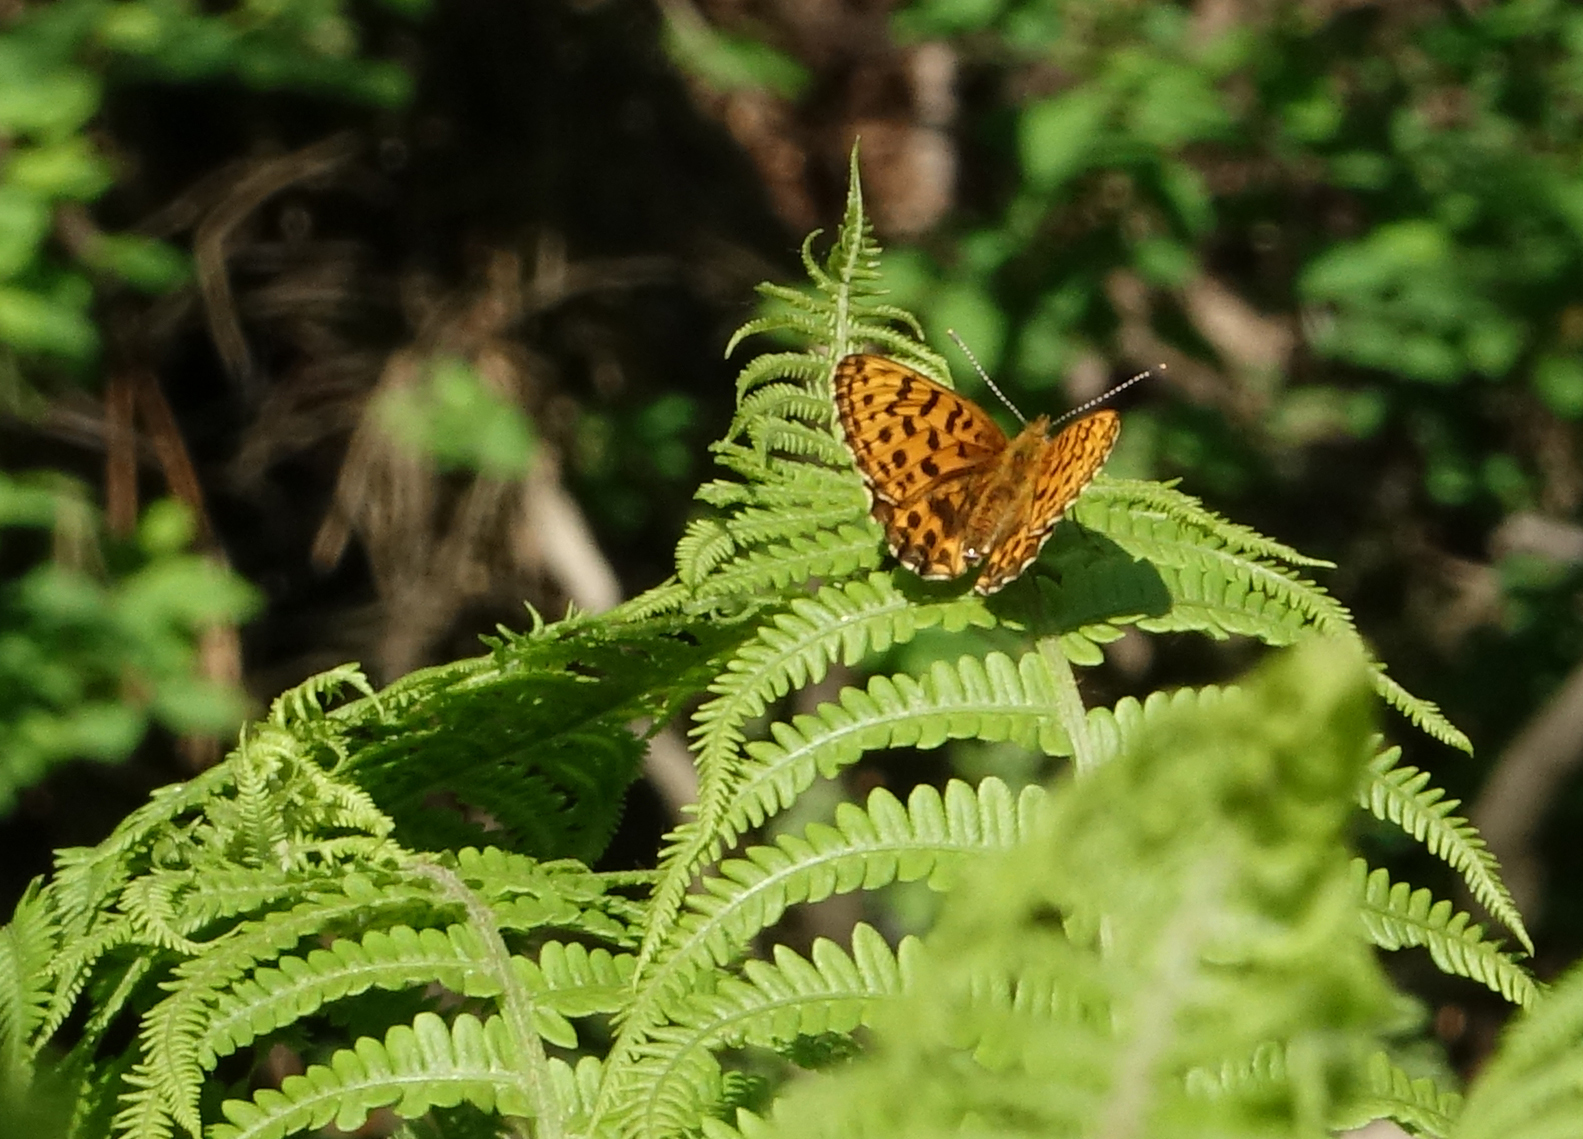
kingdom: Animalia
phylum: Arthropoda
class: Insecta
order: Lepidoptera
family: Nymphalidae
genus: Boloria
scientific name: Boloria thore
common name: Thor's fritillary
